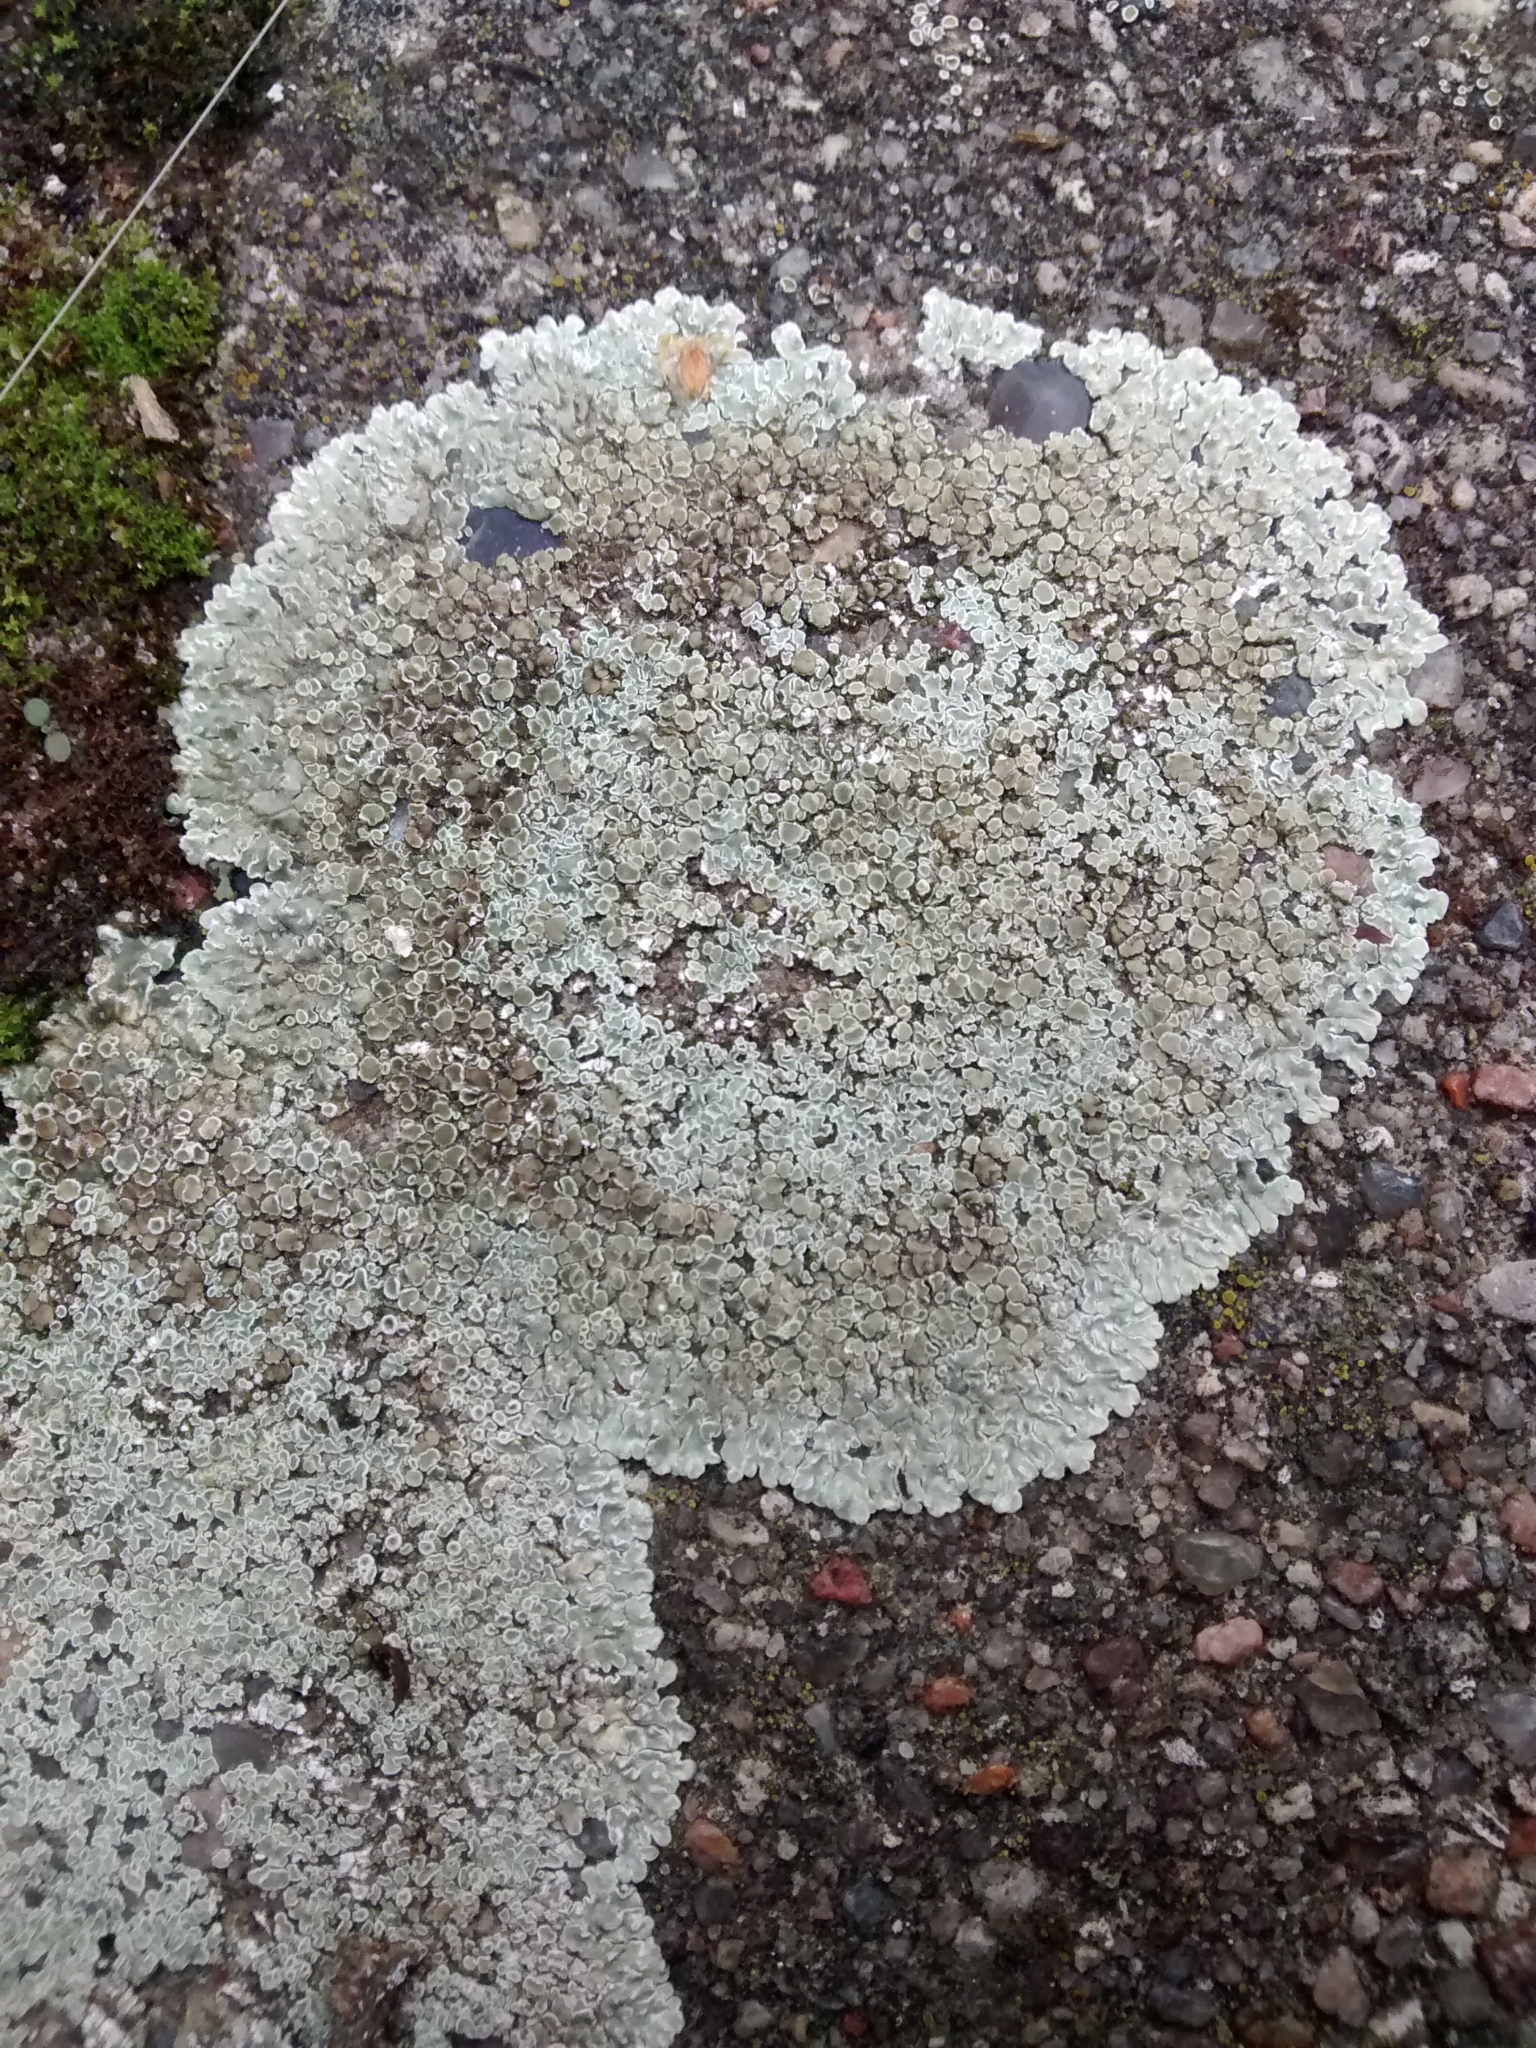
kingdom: Fungi
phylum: Ascomycota
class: Lecanoromycetes
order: Lecanorales
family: Lecanoraceae
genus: Protoparmeliopsis
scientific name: Protoparmeliopsis muralis
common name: Stonewall rim lichen
